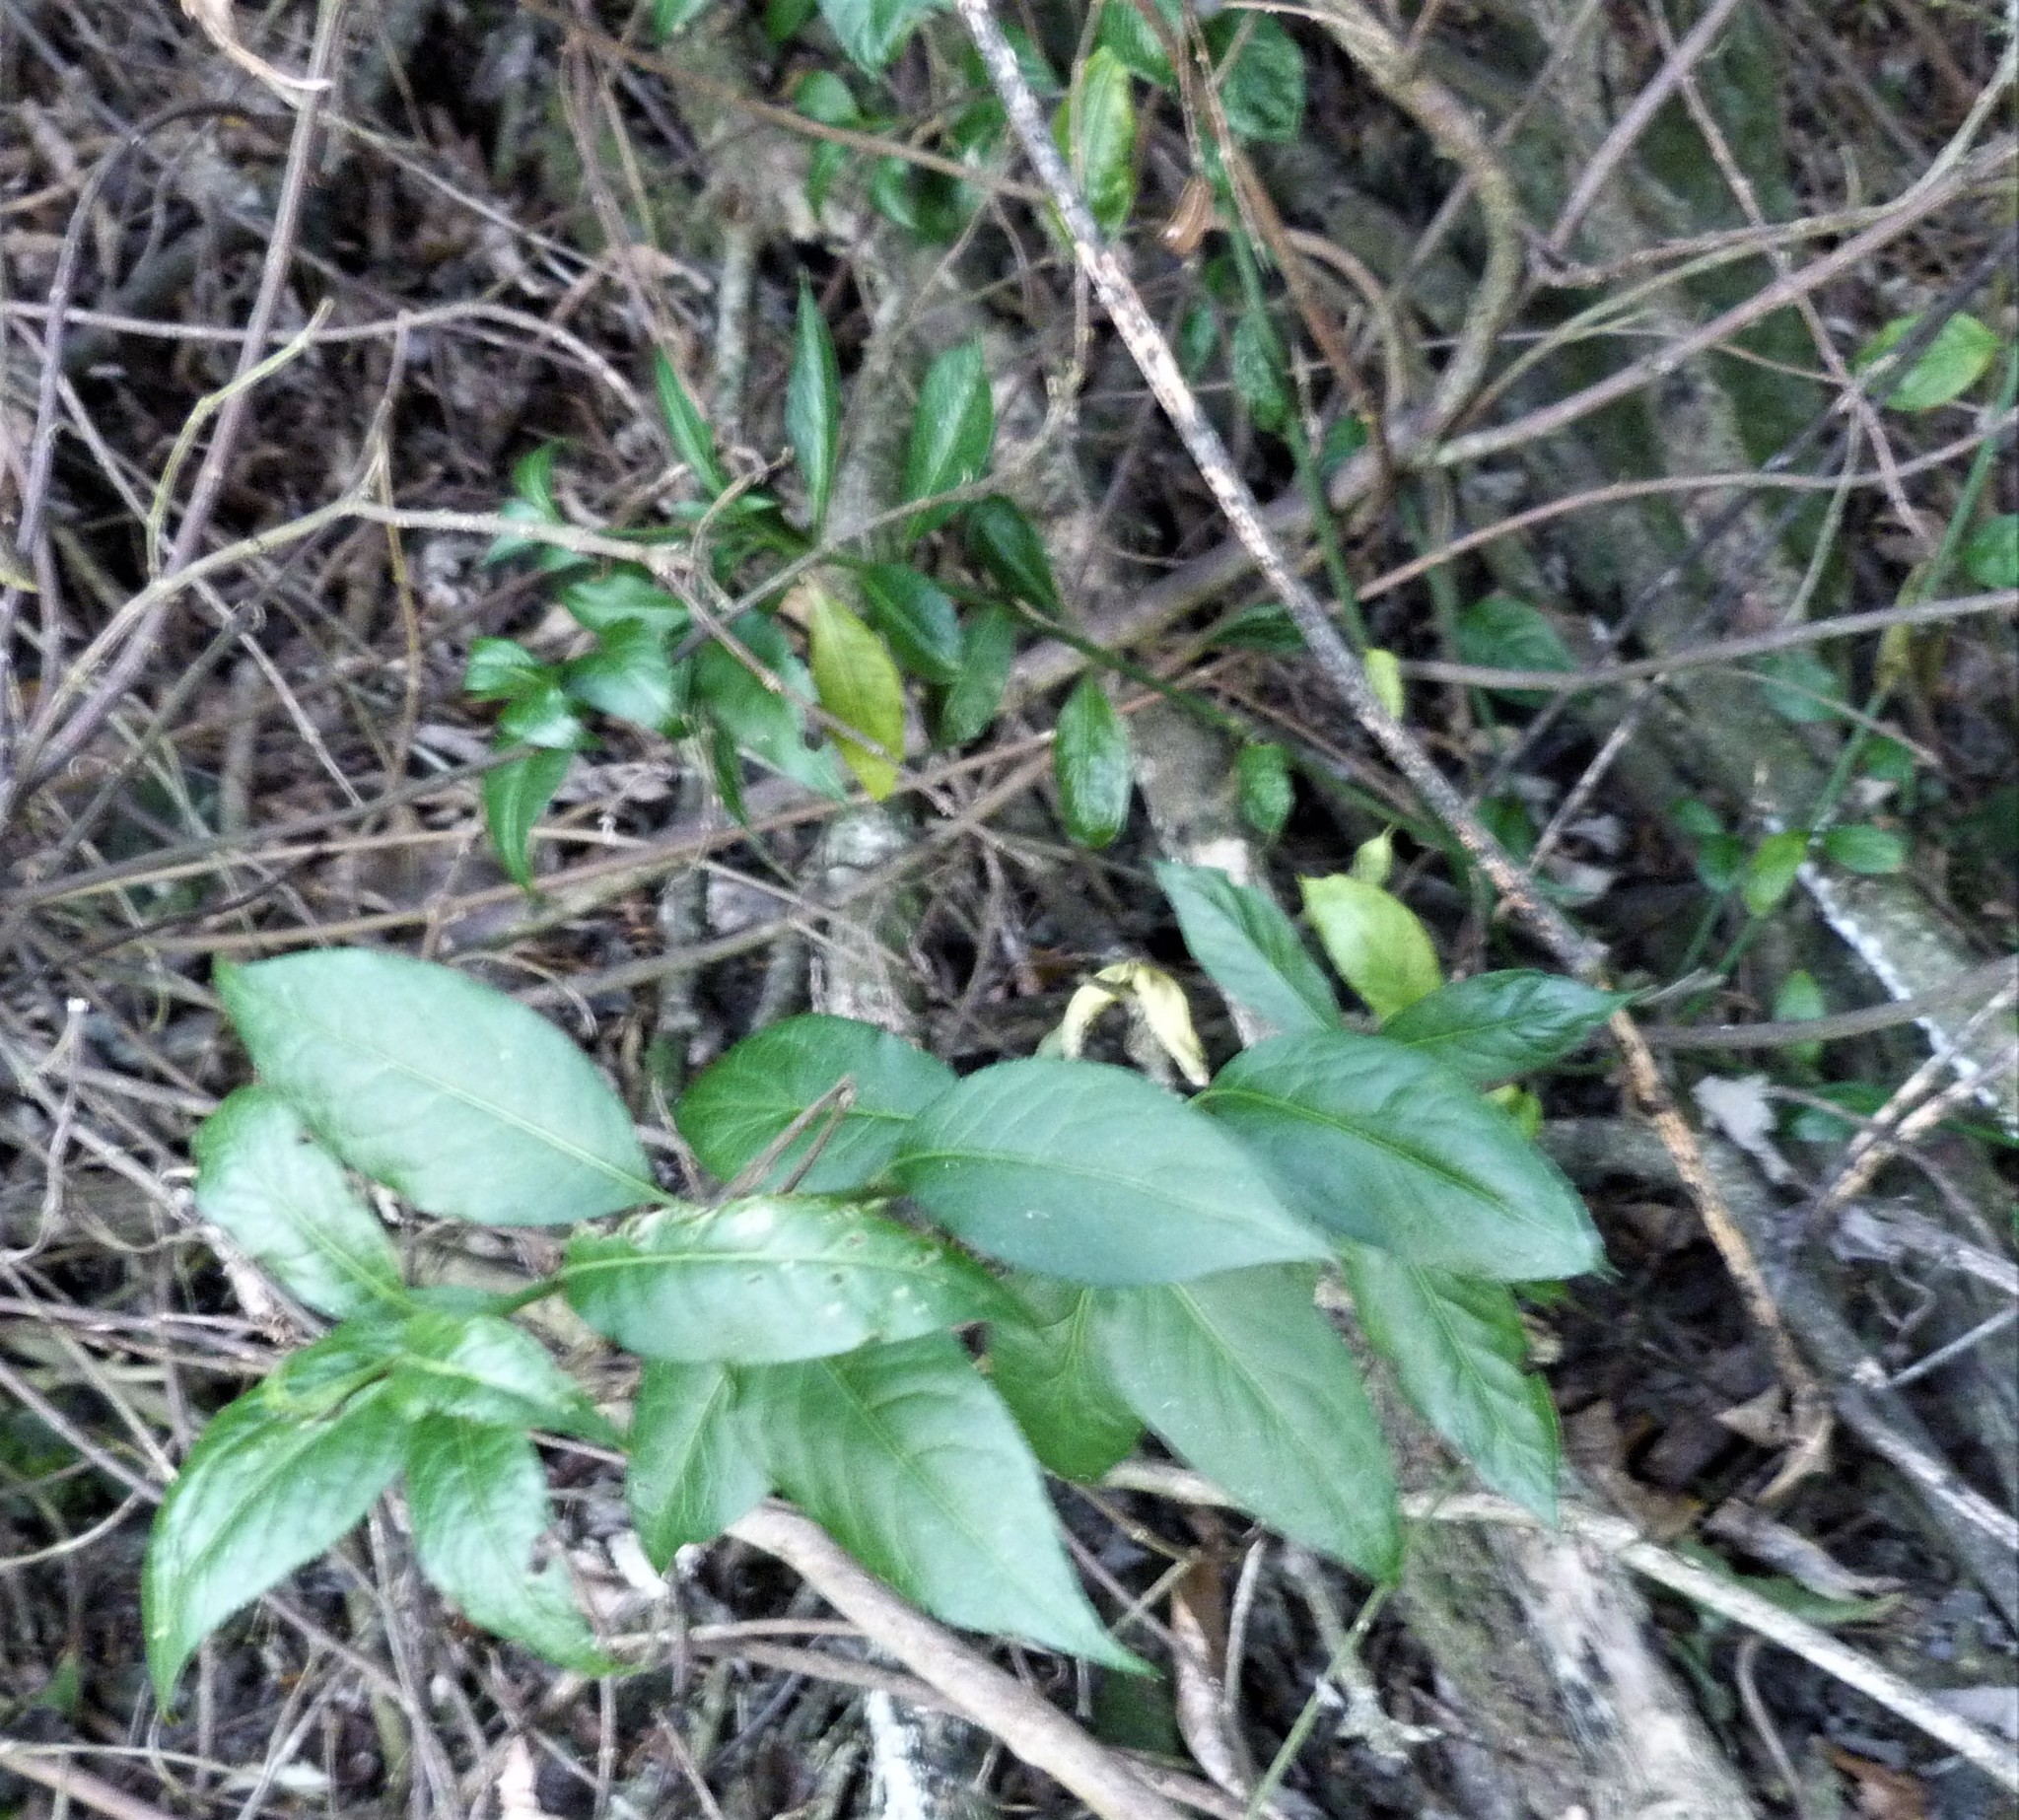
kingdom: Plantae
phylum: Tracheophyta
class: Magnoliopsida
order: Celastrales
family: Celastraceae
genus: Euonymus
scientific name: Euonymus europaeus
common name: Spindle
